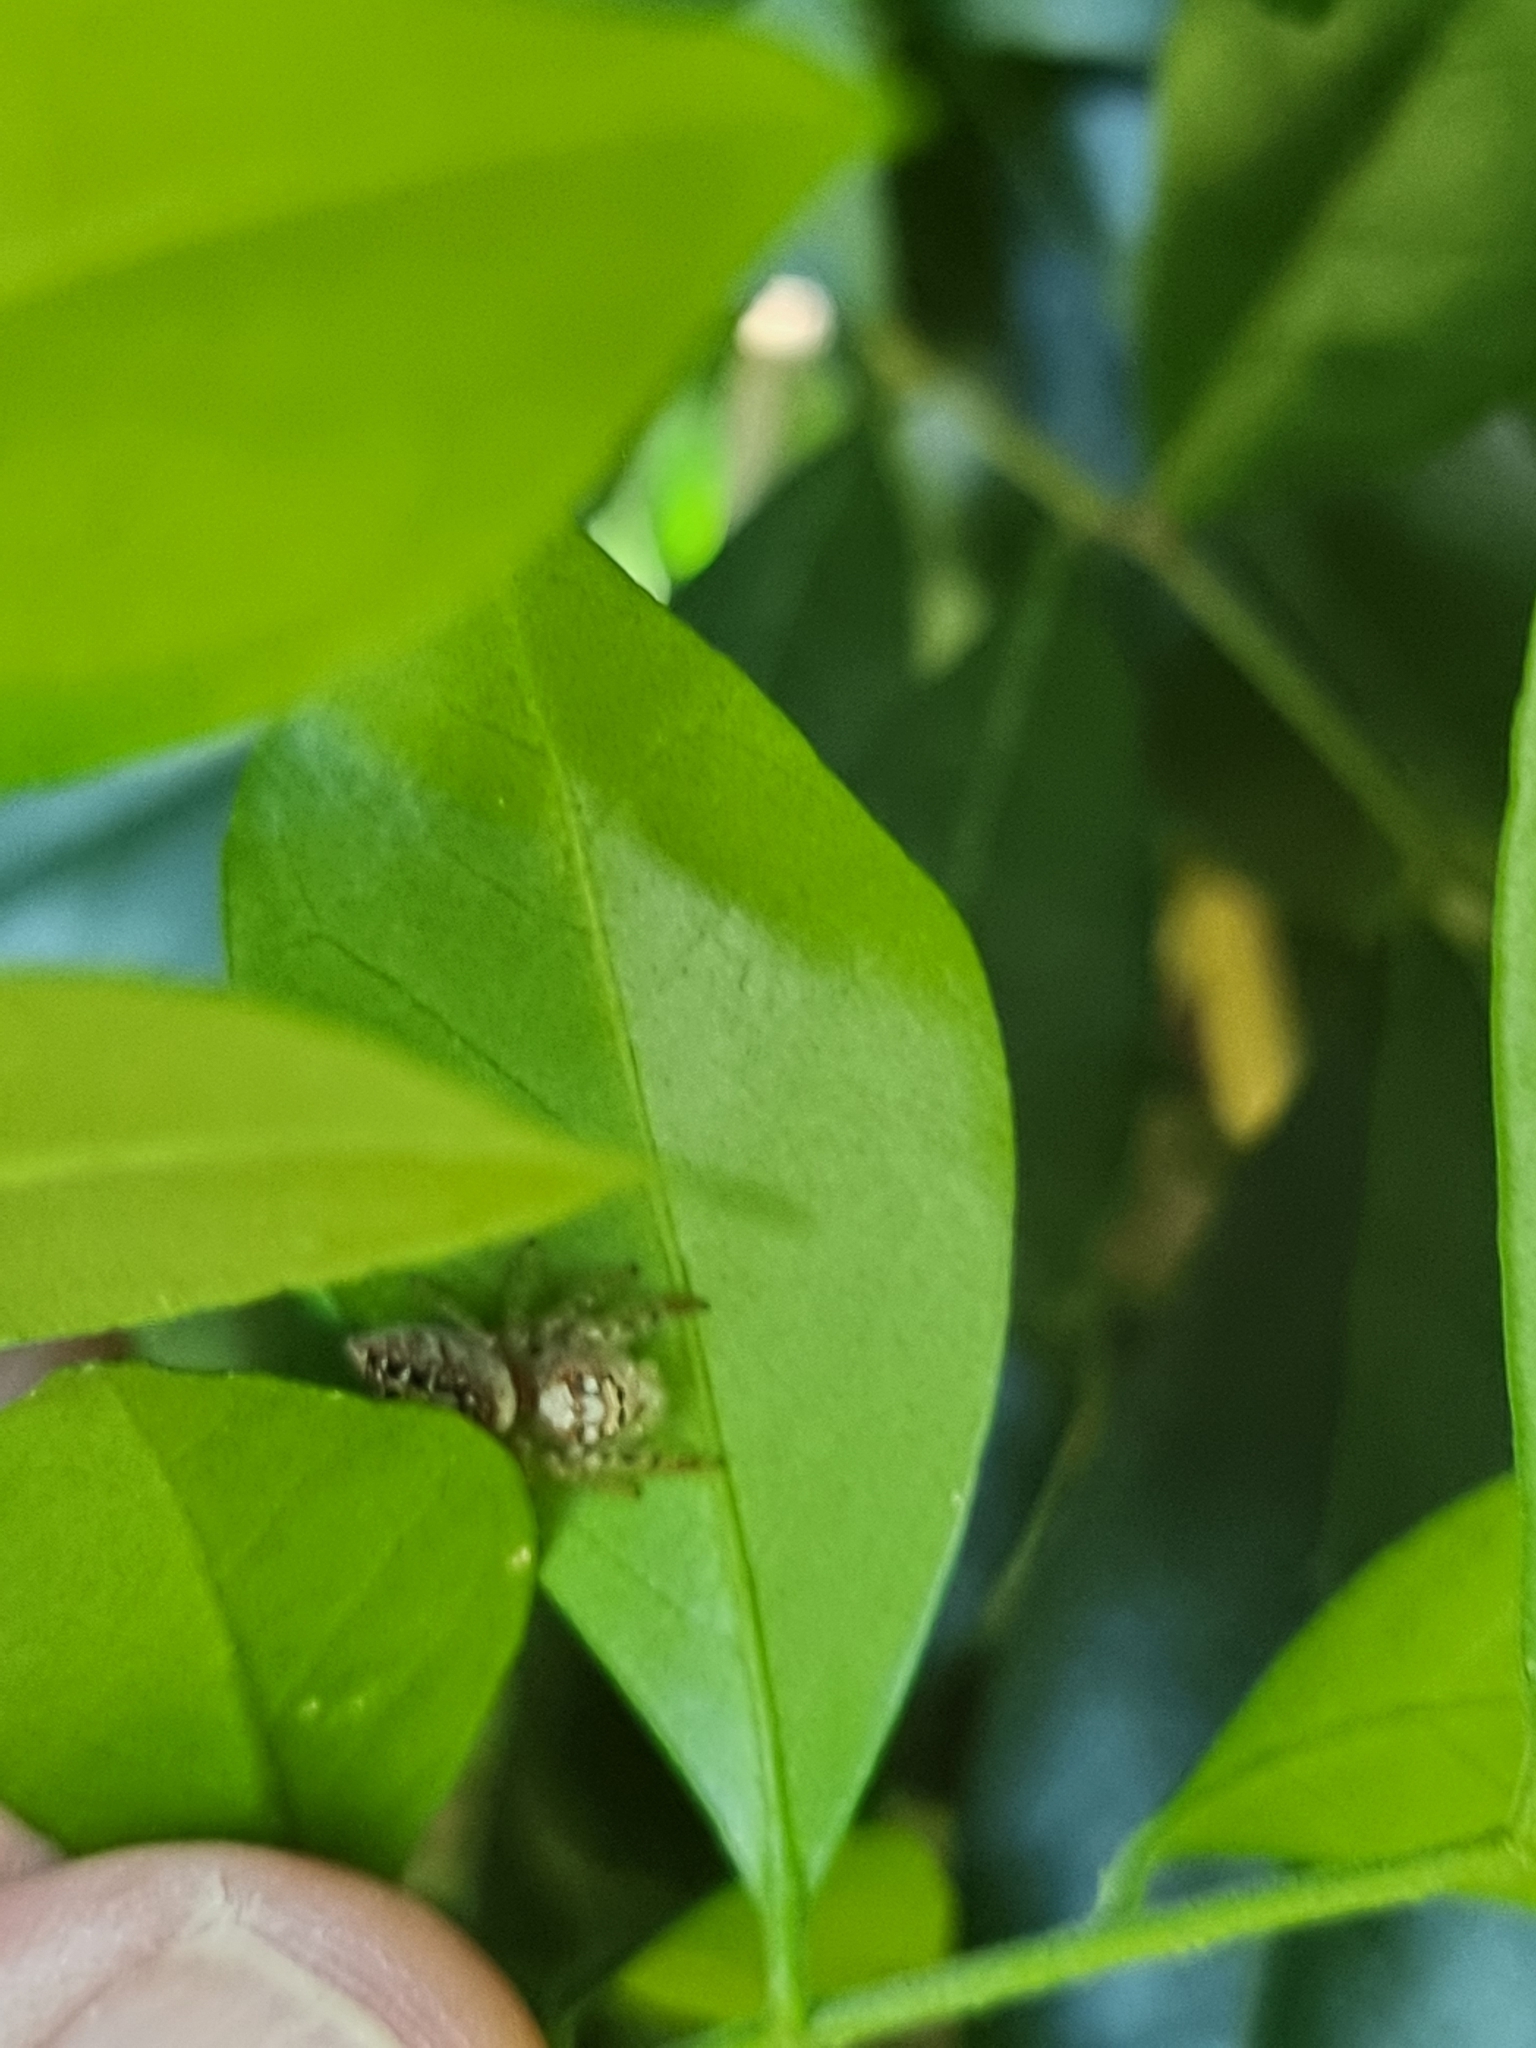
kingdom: Animalia
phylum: Arthropoda
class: Arachnida
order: Araneae
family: Salticidae
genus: Opisthoncus
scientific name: Opisthoncus quadratarius
